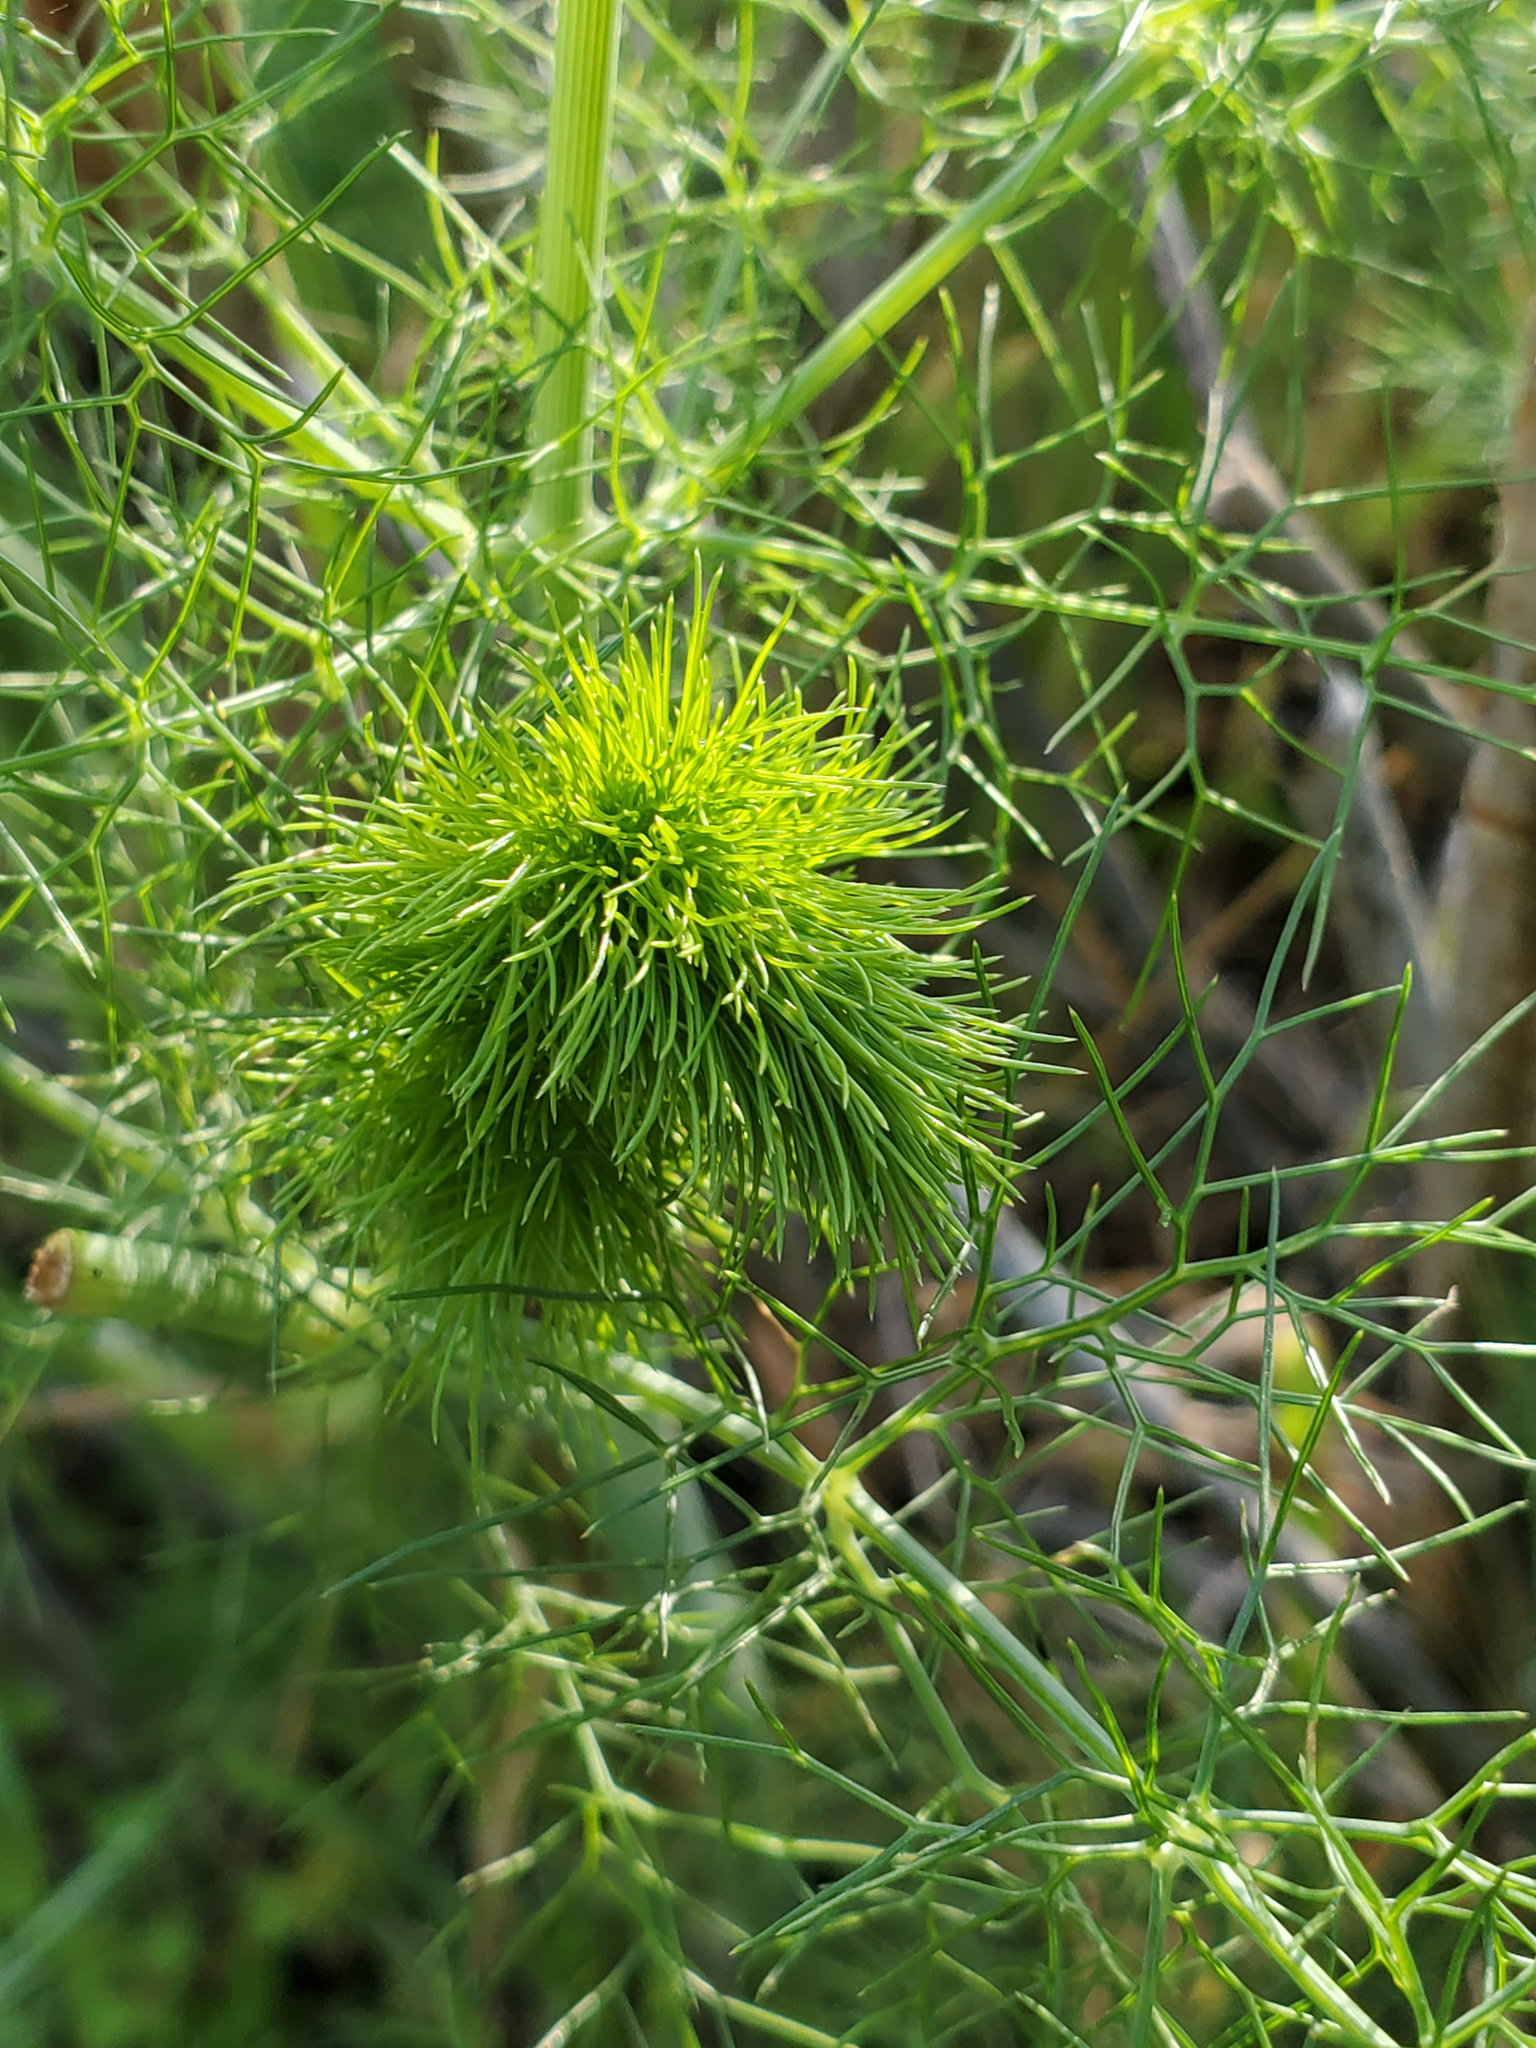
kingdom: Plantae
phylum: Tracheophyta
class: Magnoliopsida
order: Apiales
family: Apiaceae
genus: Foeniculum
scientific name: Foeniculum vulgare
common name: Fennel
